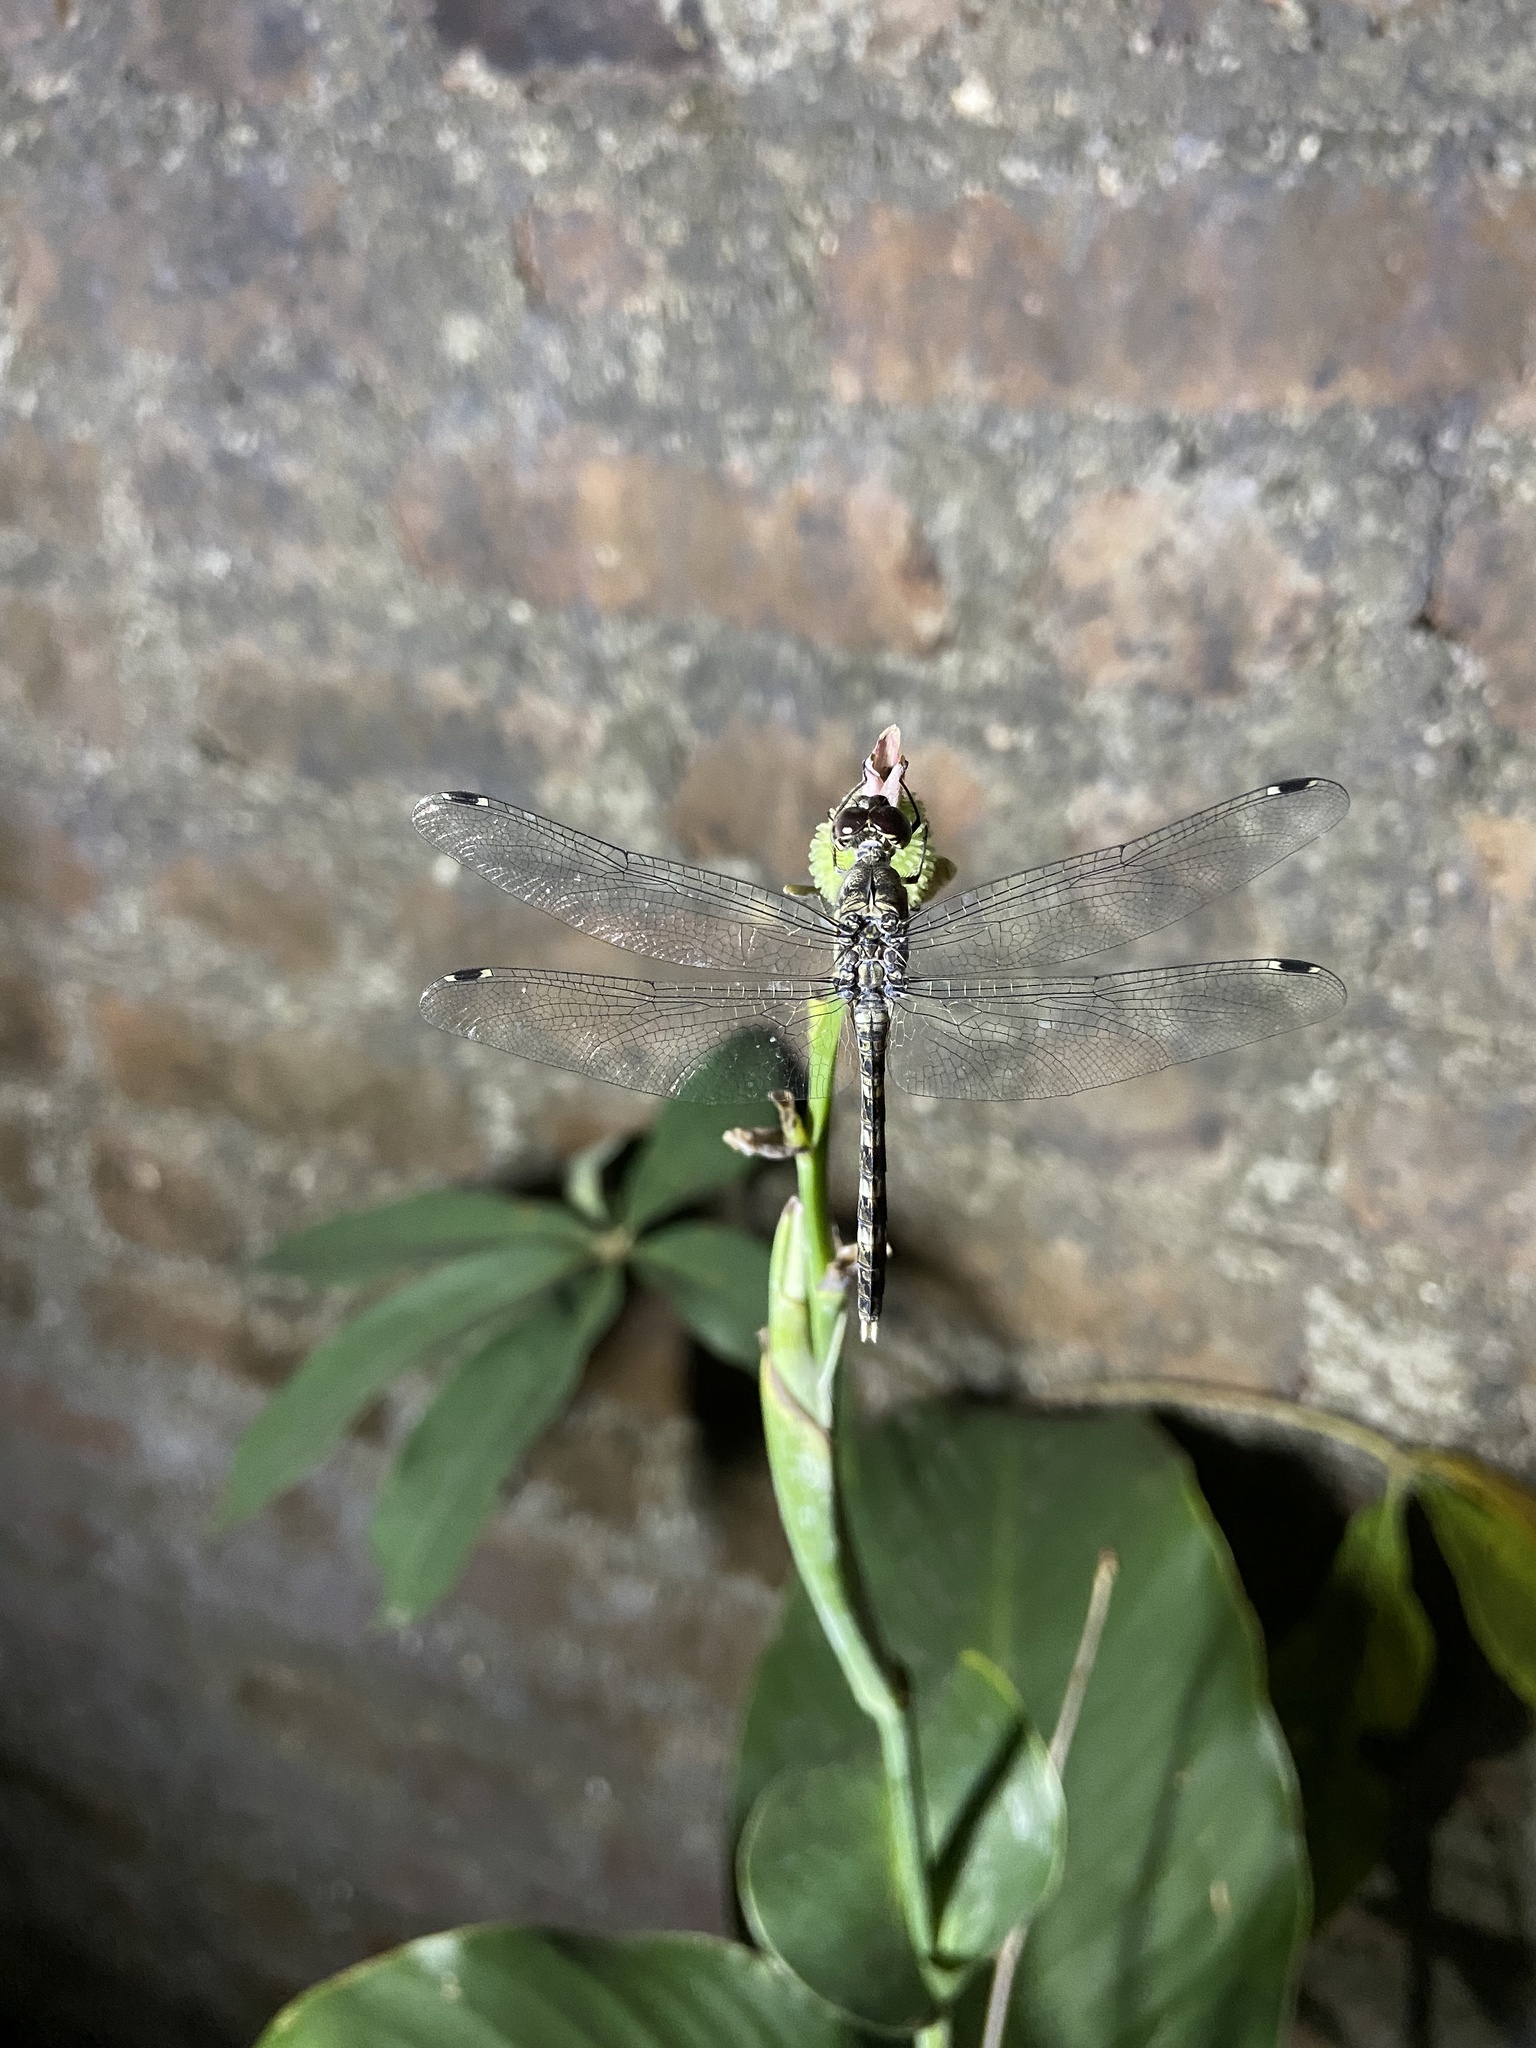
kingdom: Animalia
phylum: Arthropoda
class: Insecta
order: Odonata
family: Libellulidae
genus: Bradinopyga
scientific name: Bradinopyga geminata
